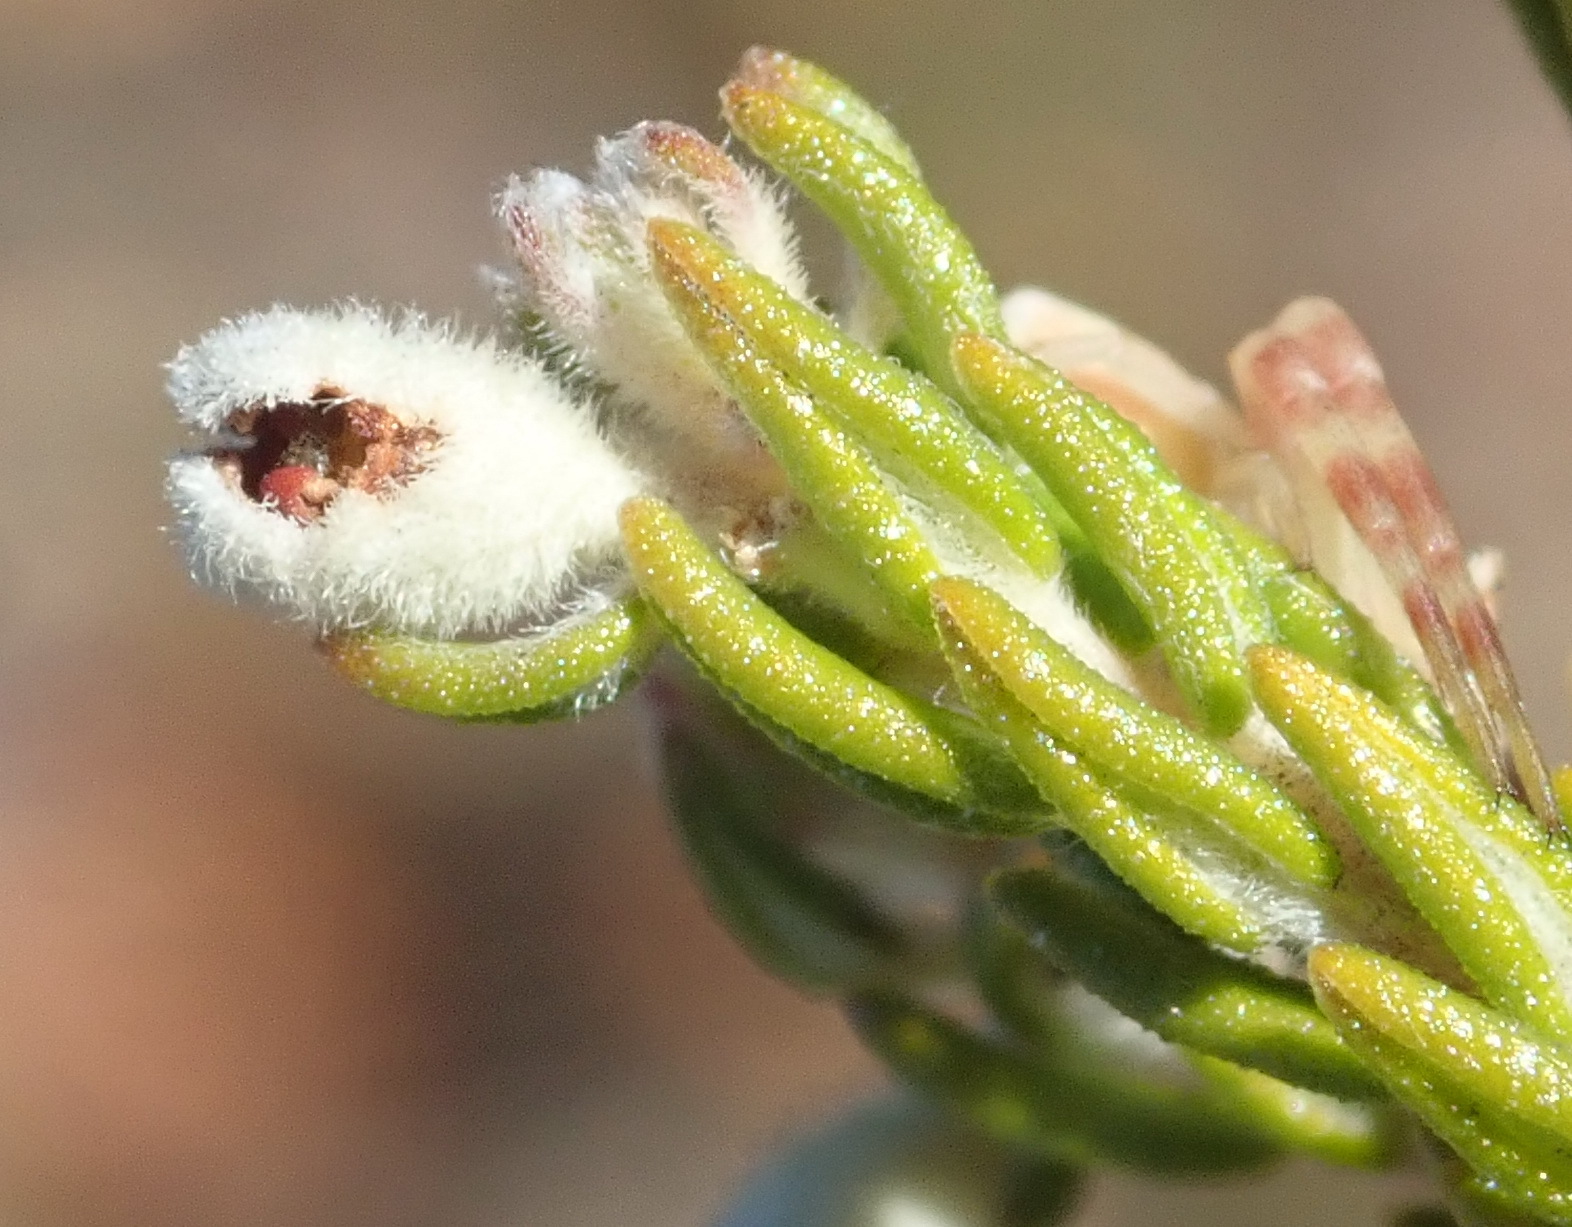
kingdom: Plantae
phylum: Tracheophyta
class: Magnoliopsida
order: Rosales
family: Rhamnaceae
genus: Phylica
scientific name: Phylica lanata
